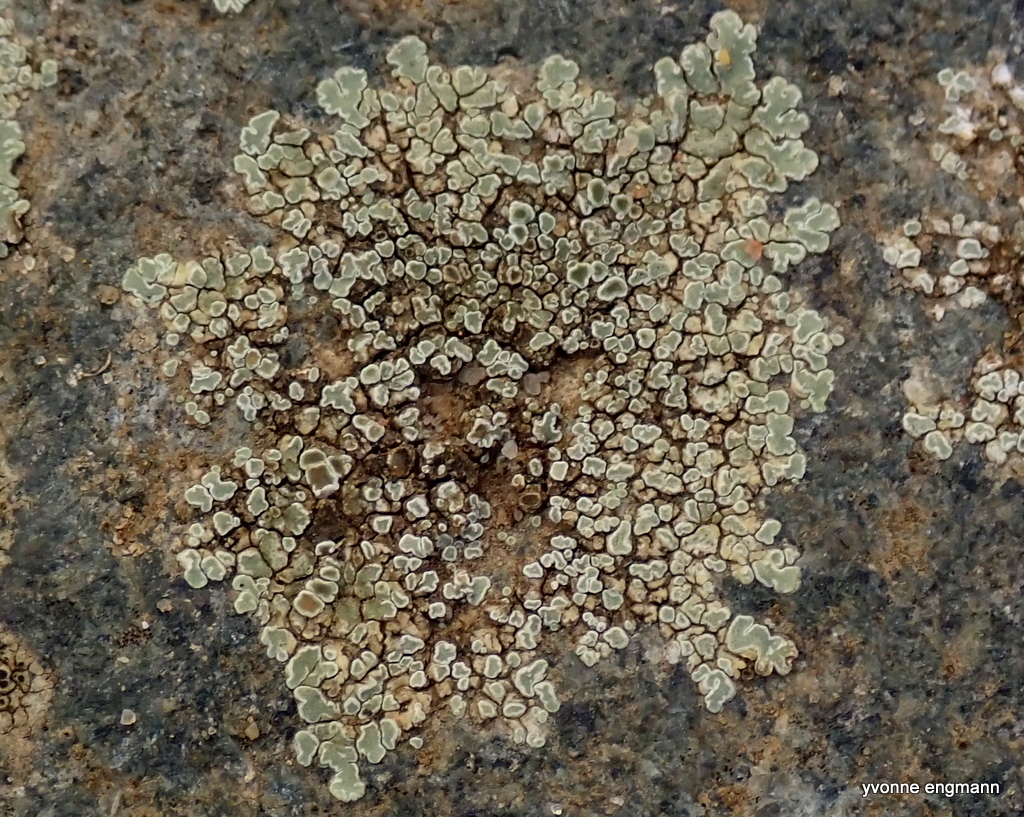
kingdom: Fungi
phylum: Ascomycota
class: Lecanoromycetes
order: Lecanorales
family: Lecanoraceae
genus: Protoparmeliopsis
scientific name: Protoparmeliopsis muralis
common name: Stonewall rim lichen
